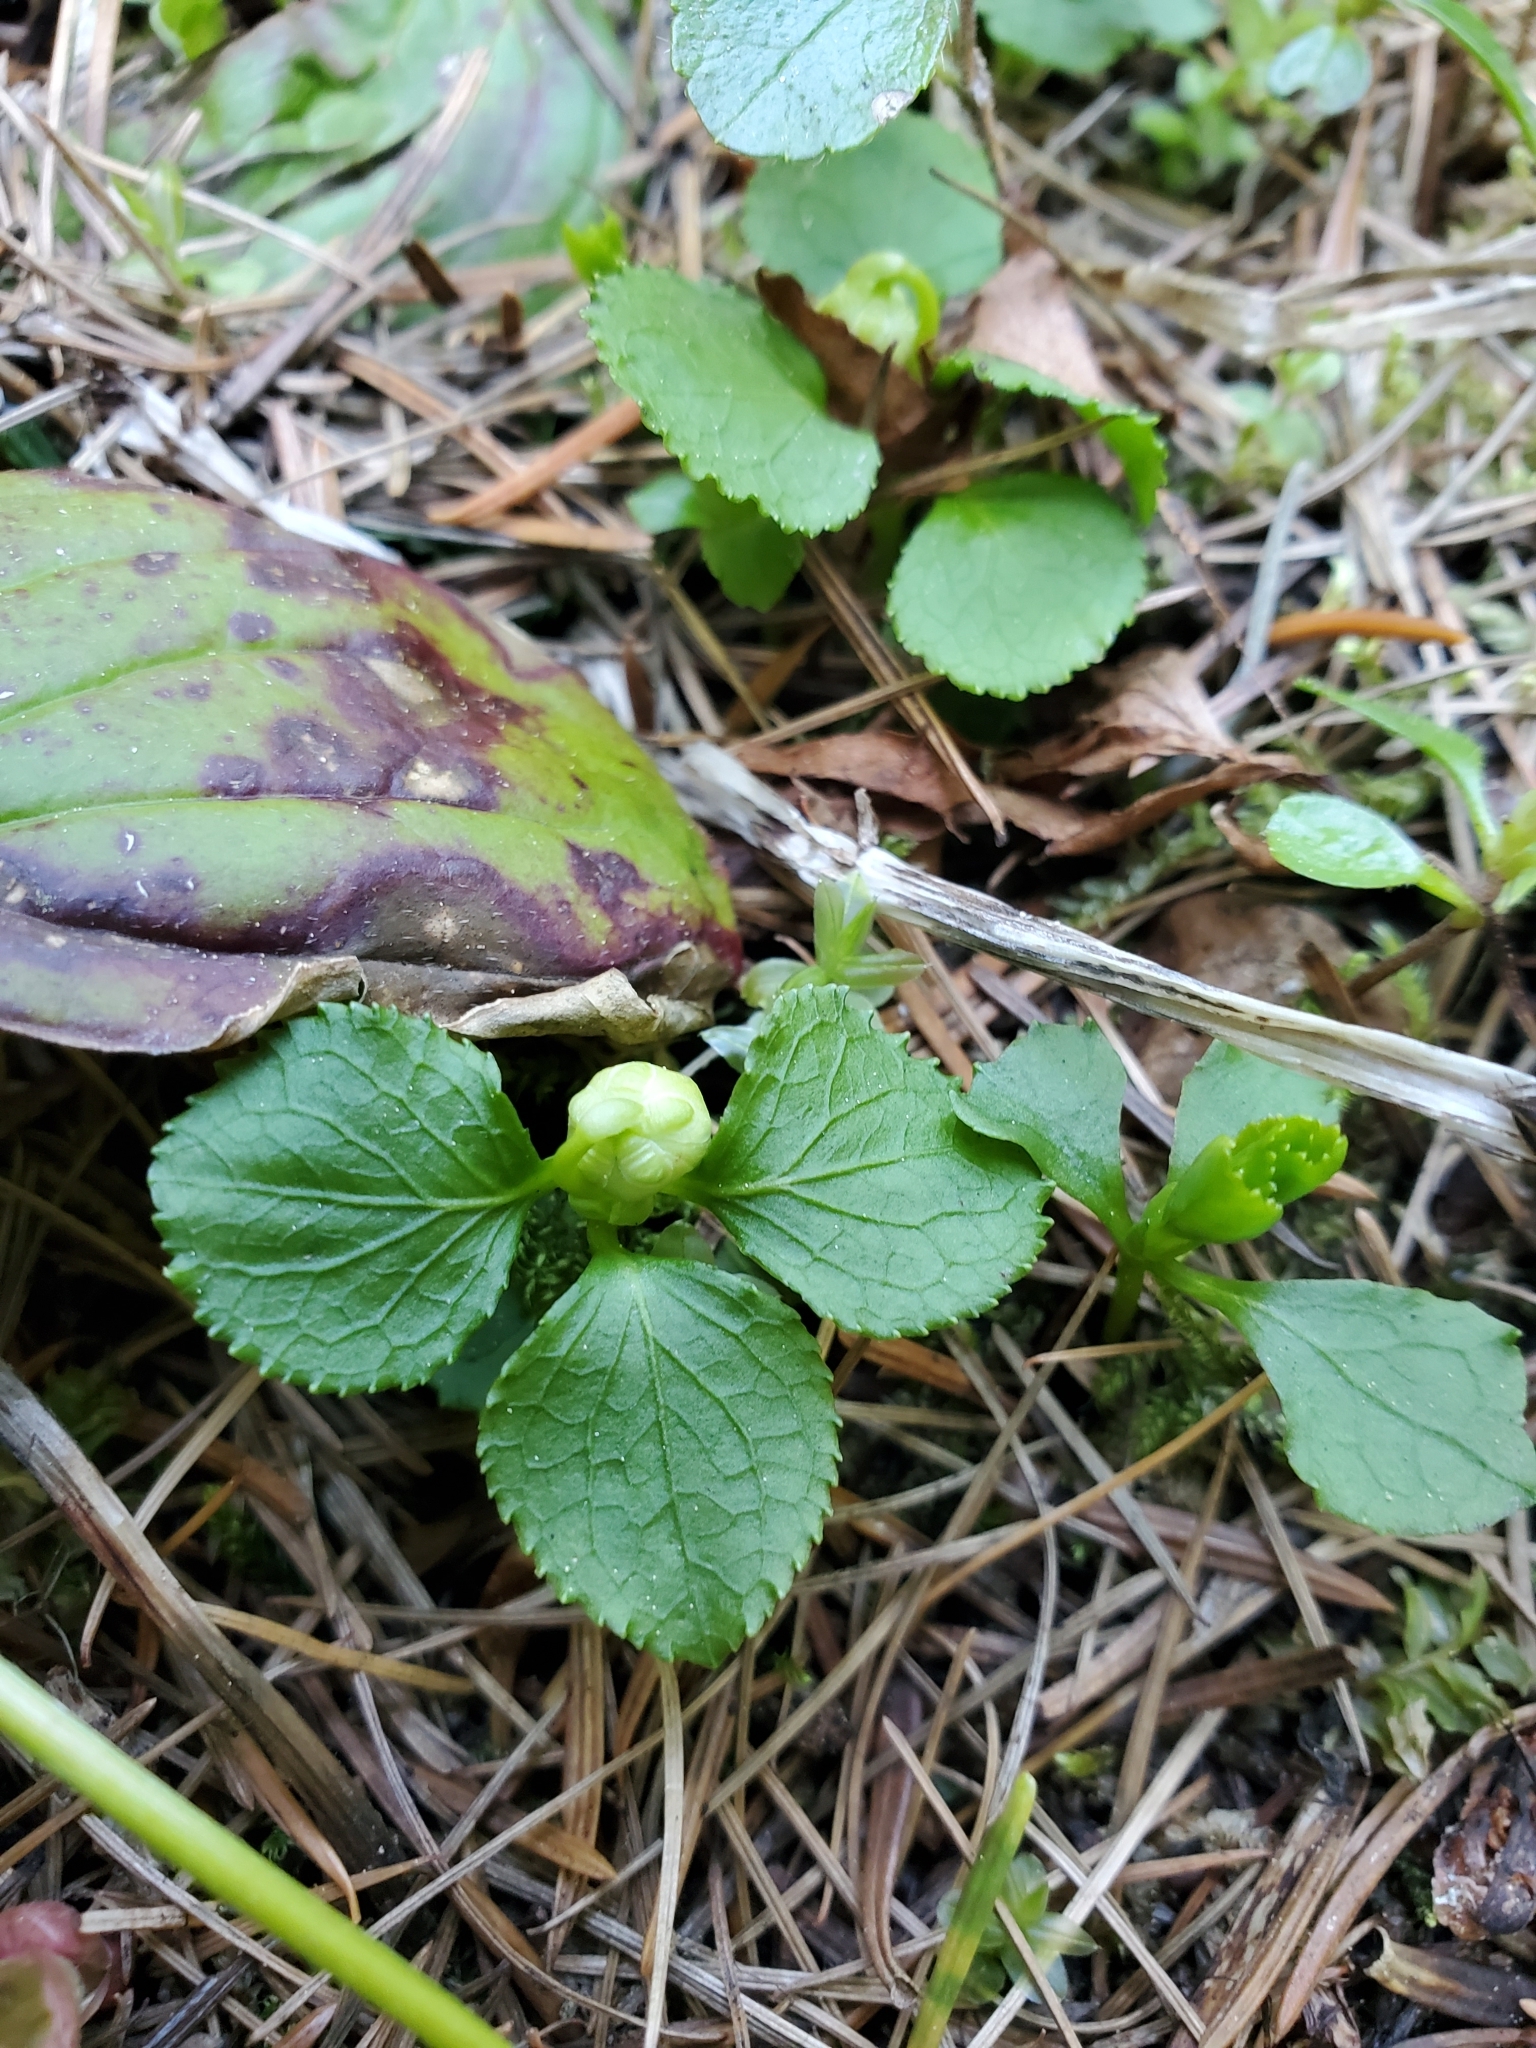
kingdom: Plantae
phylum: Tracheophyta
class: Magnoliopsida
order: Ericales
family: Ericaceae
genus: Moneses
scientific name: Moneses uniflora
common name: One-flowered wintergreen
